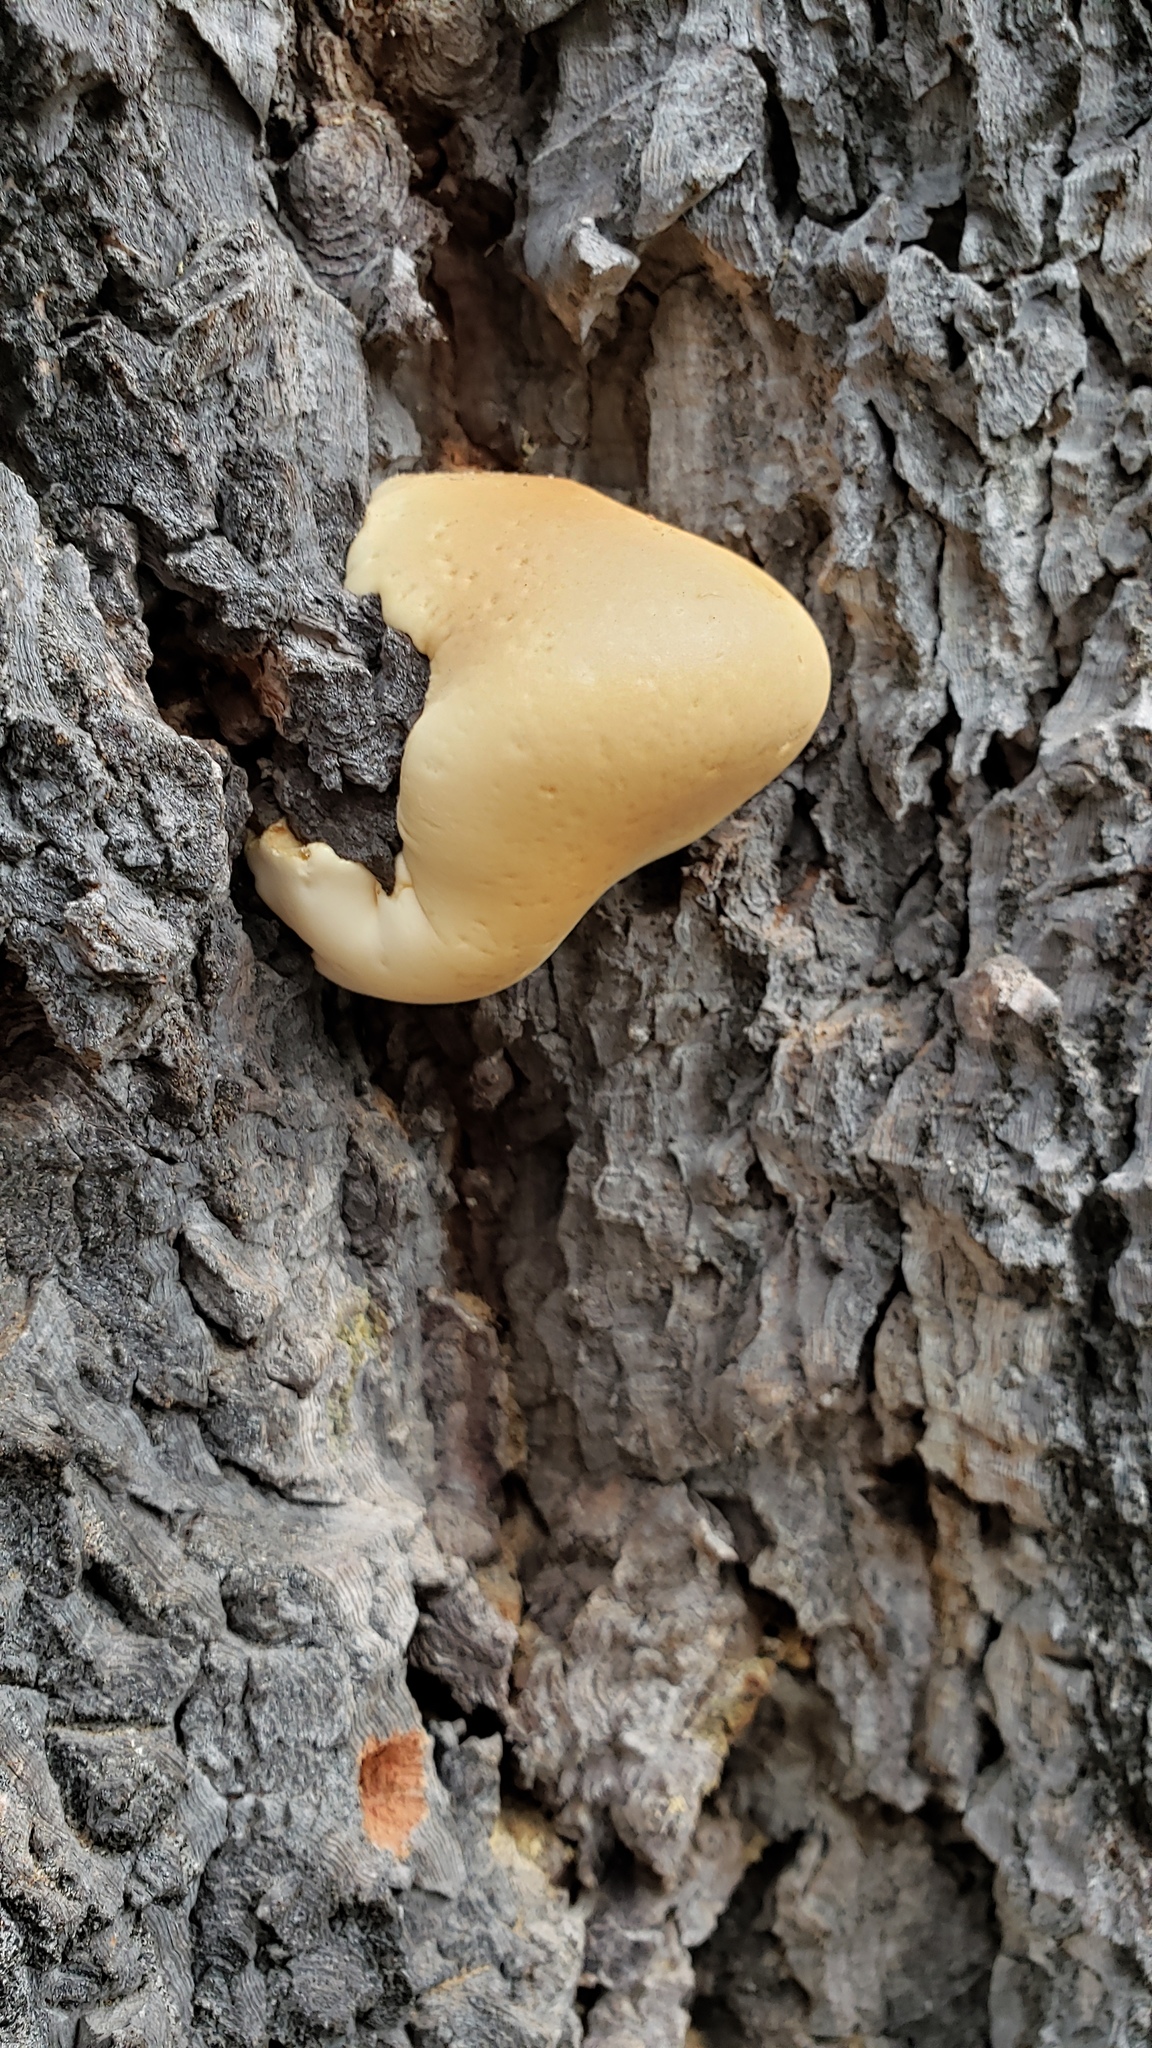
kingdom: Fungi
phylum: Basidiomycota
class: Agaricomycetes
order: Polyporales
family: Polyporaceae
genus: Cryptoporus
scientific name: Cryptoporus volvatus
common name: Veiled polypore
